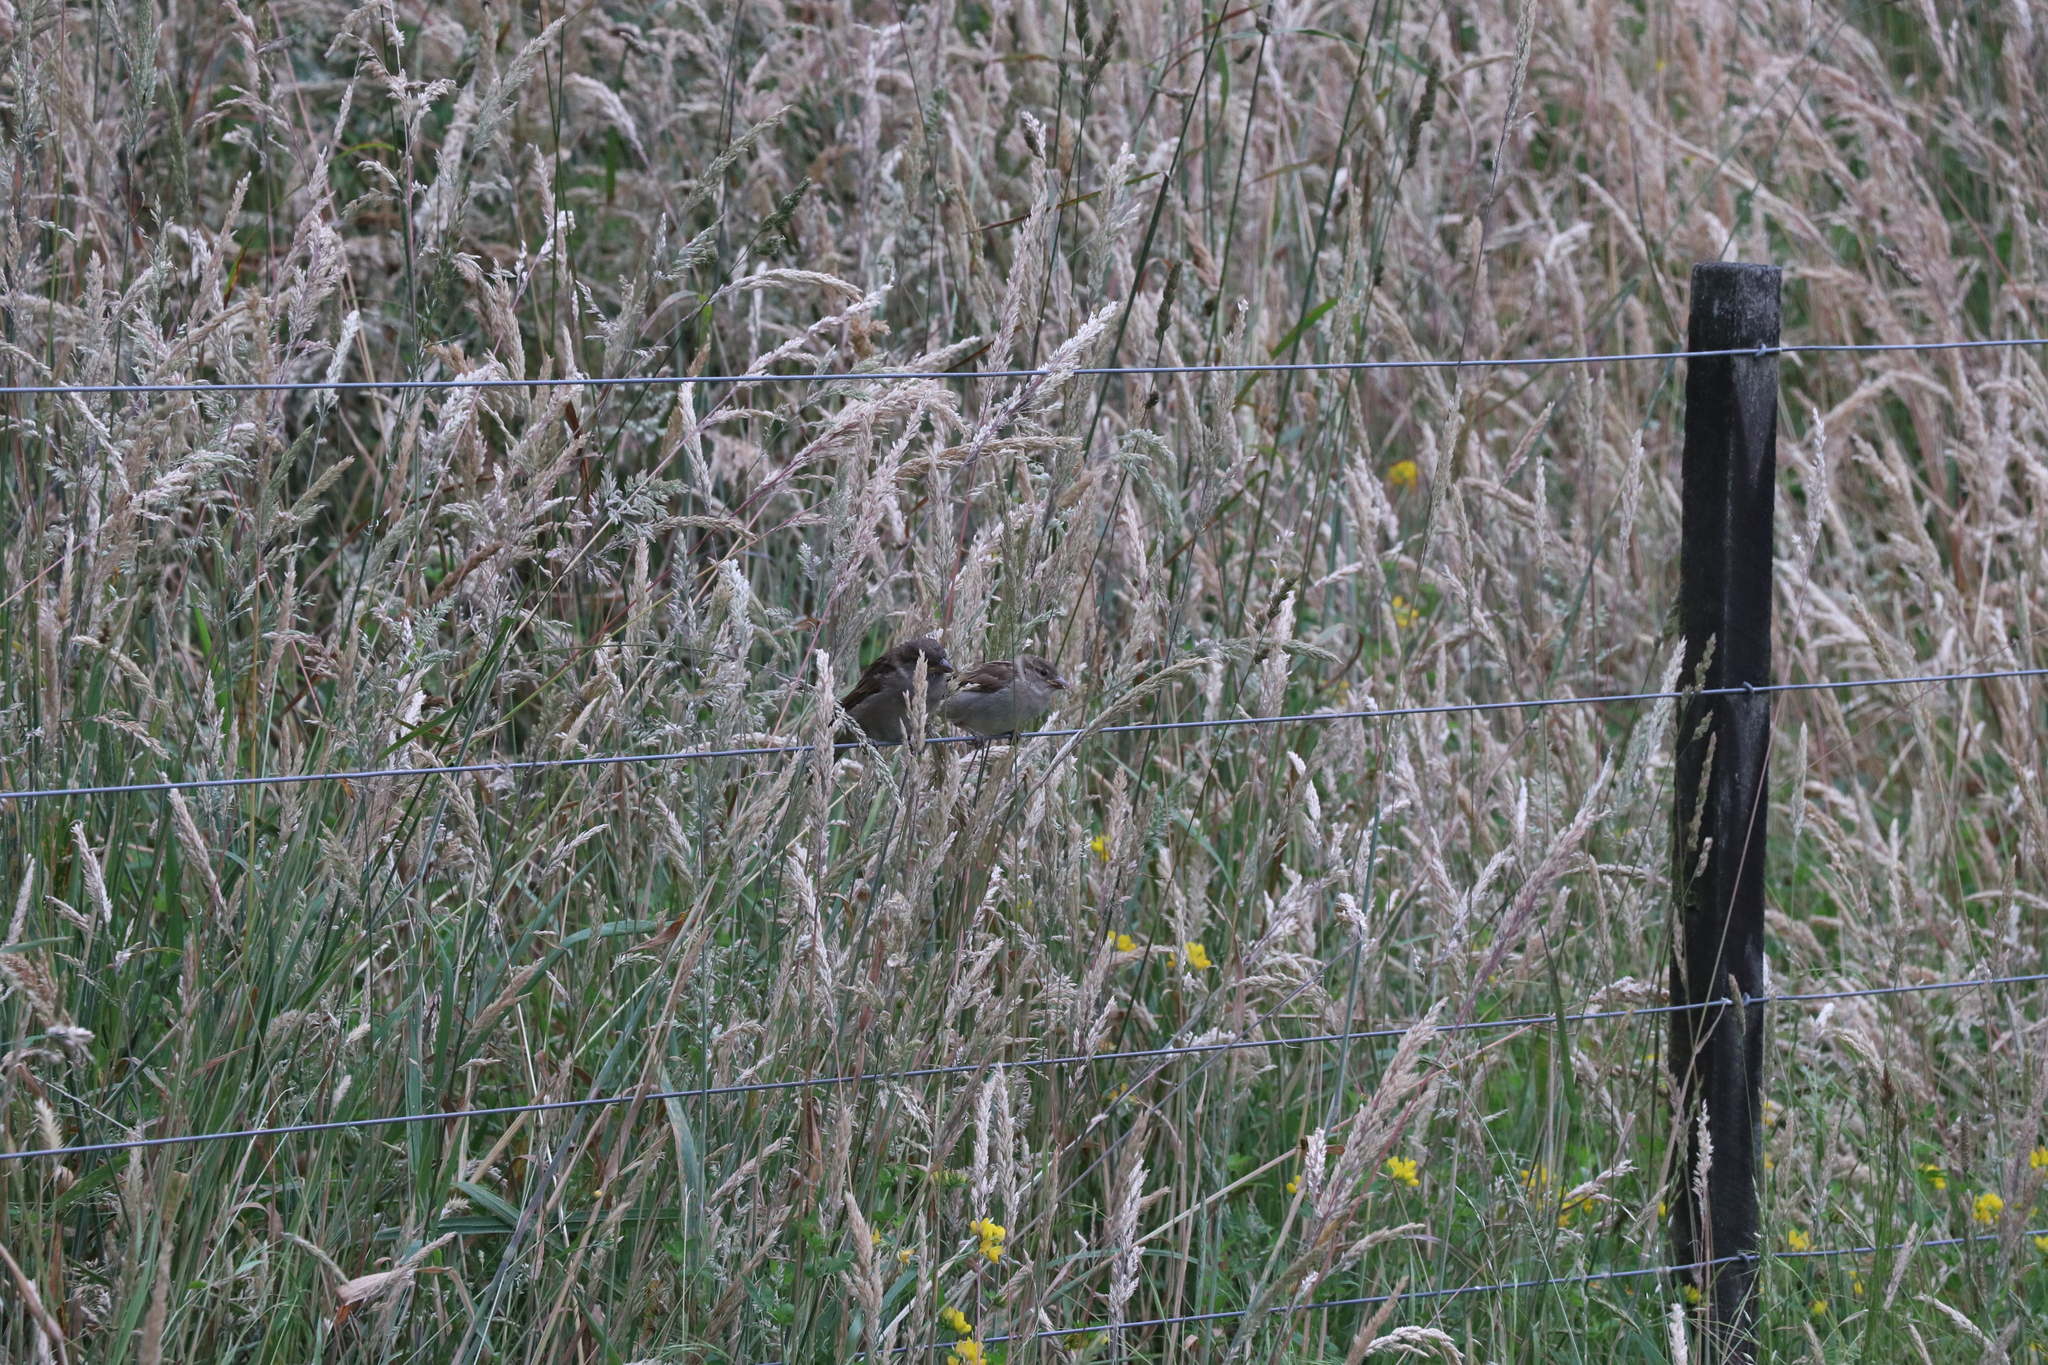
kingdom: Animalia
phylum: Chordata
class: Aves
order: Passeriformes
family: Passeridae
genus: Passer
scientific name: Passer domesticus
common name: House sparrow
